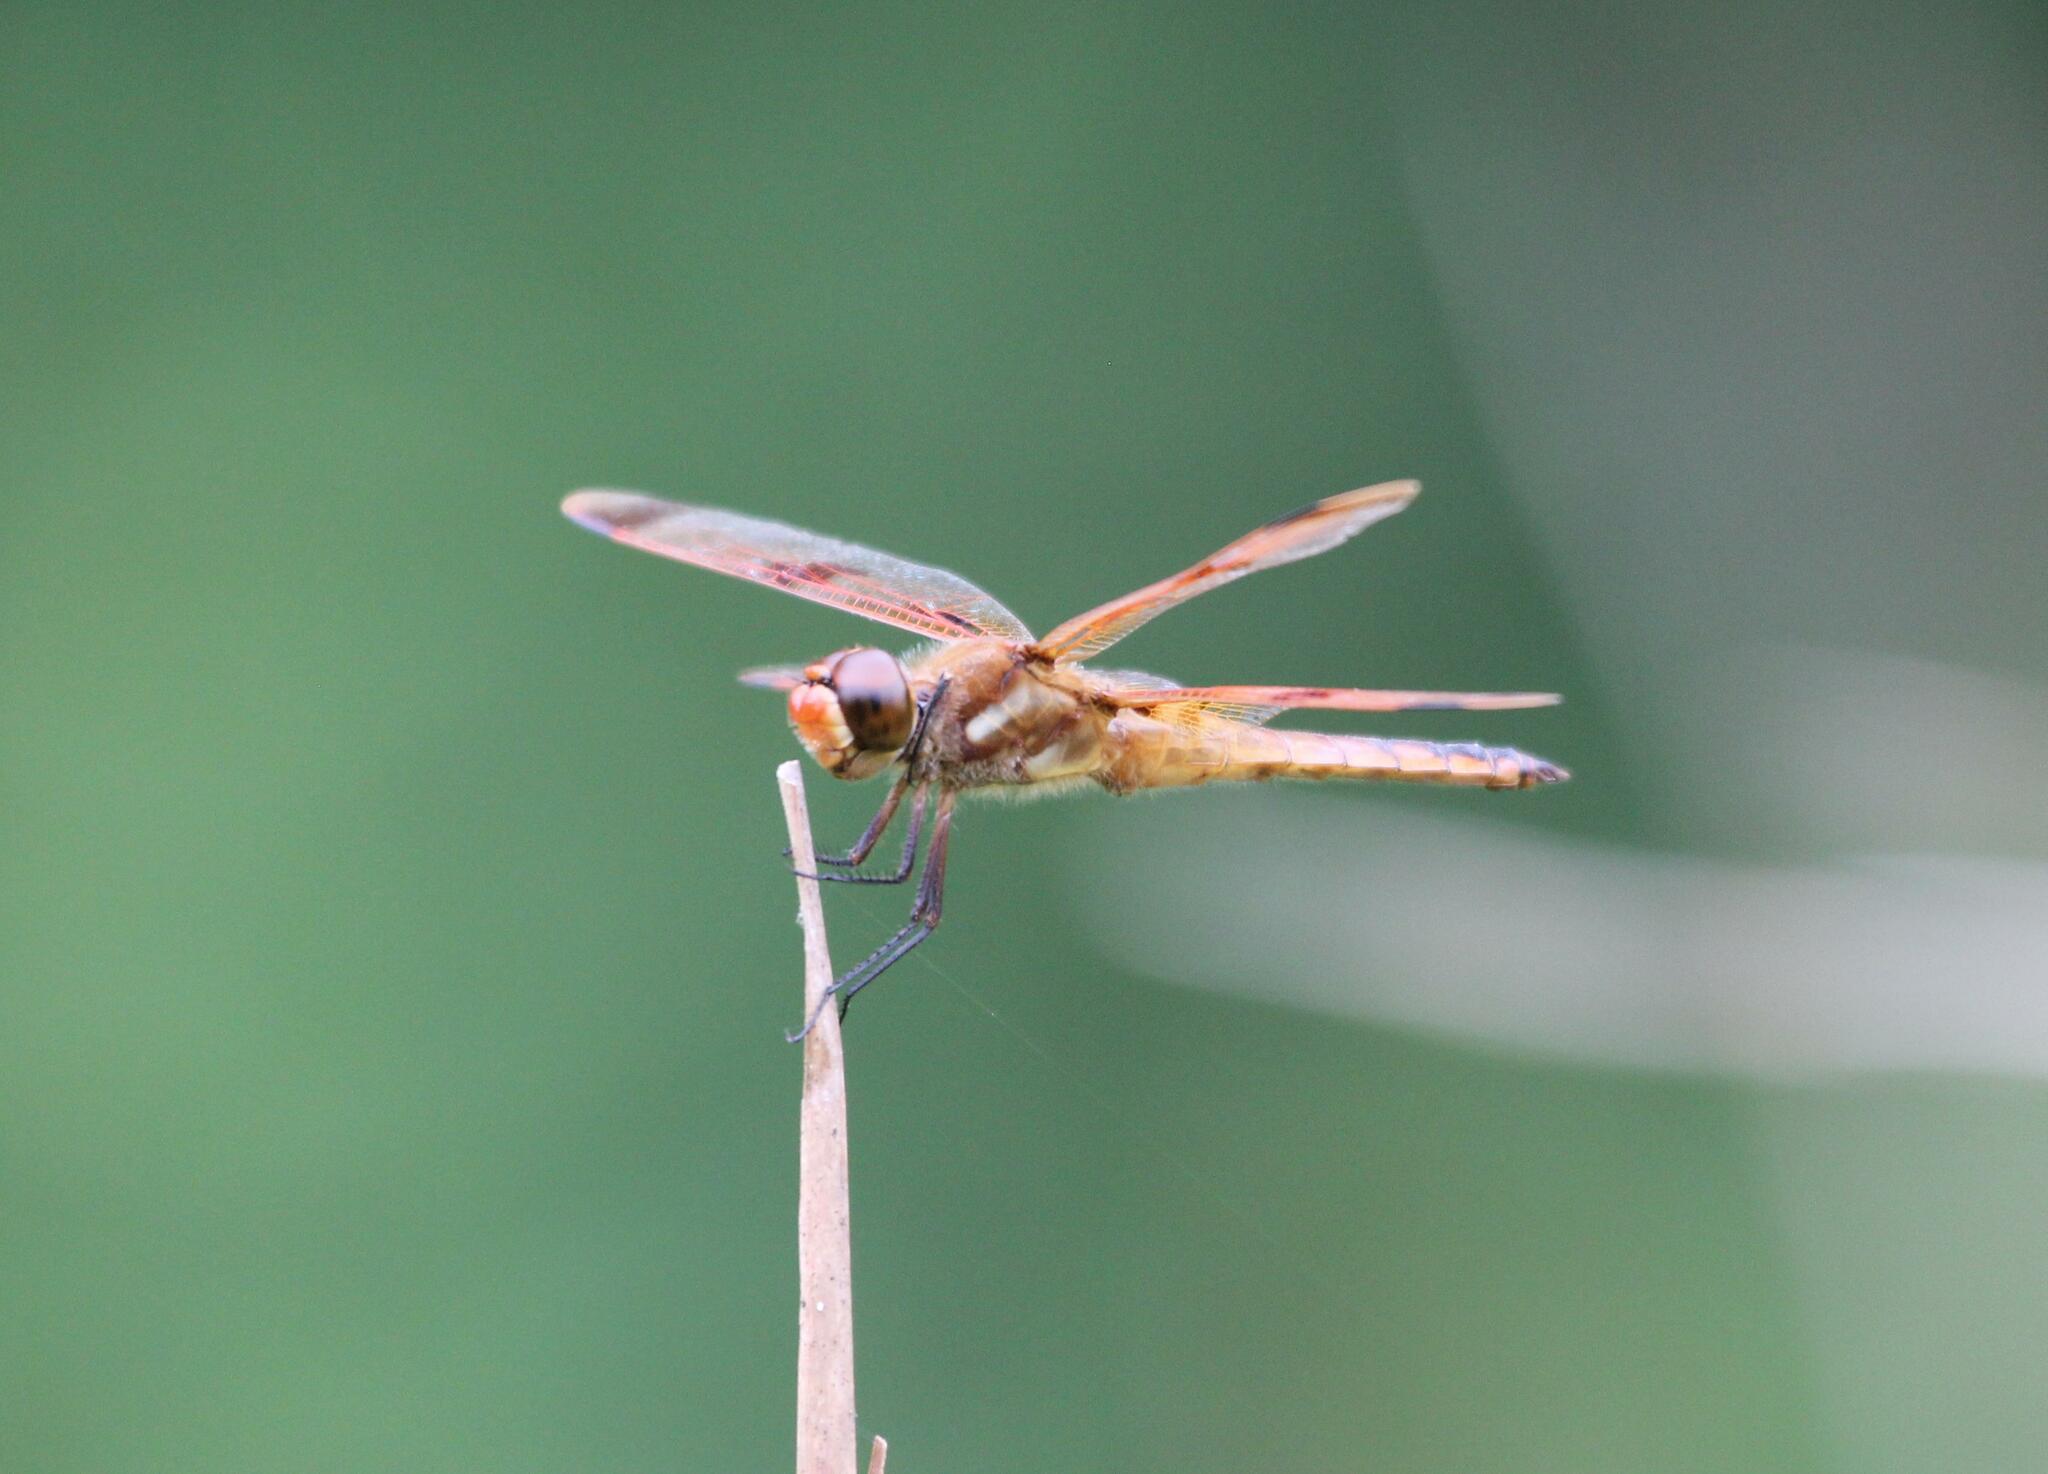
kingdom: Animalia
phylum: Arthropoda
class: Insecta
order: Odonata
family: Libellulidae
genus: Libellula
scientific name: Libellula semifasciata
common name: Painted skimmer
